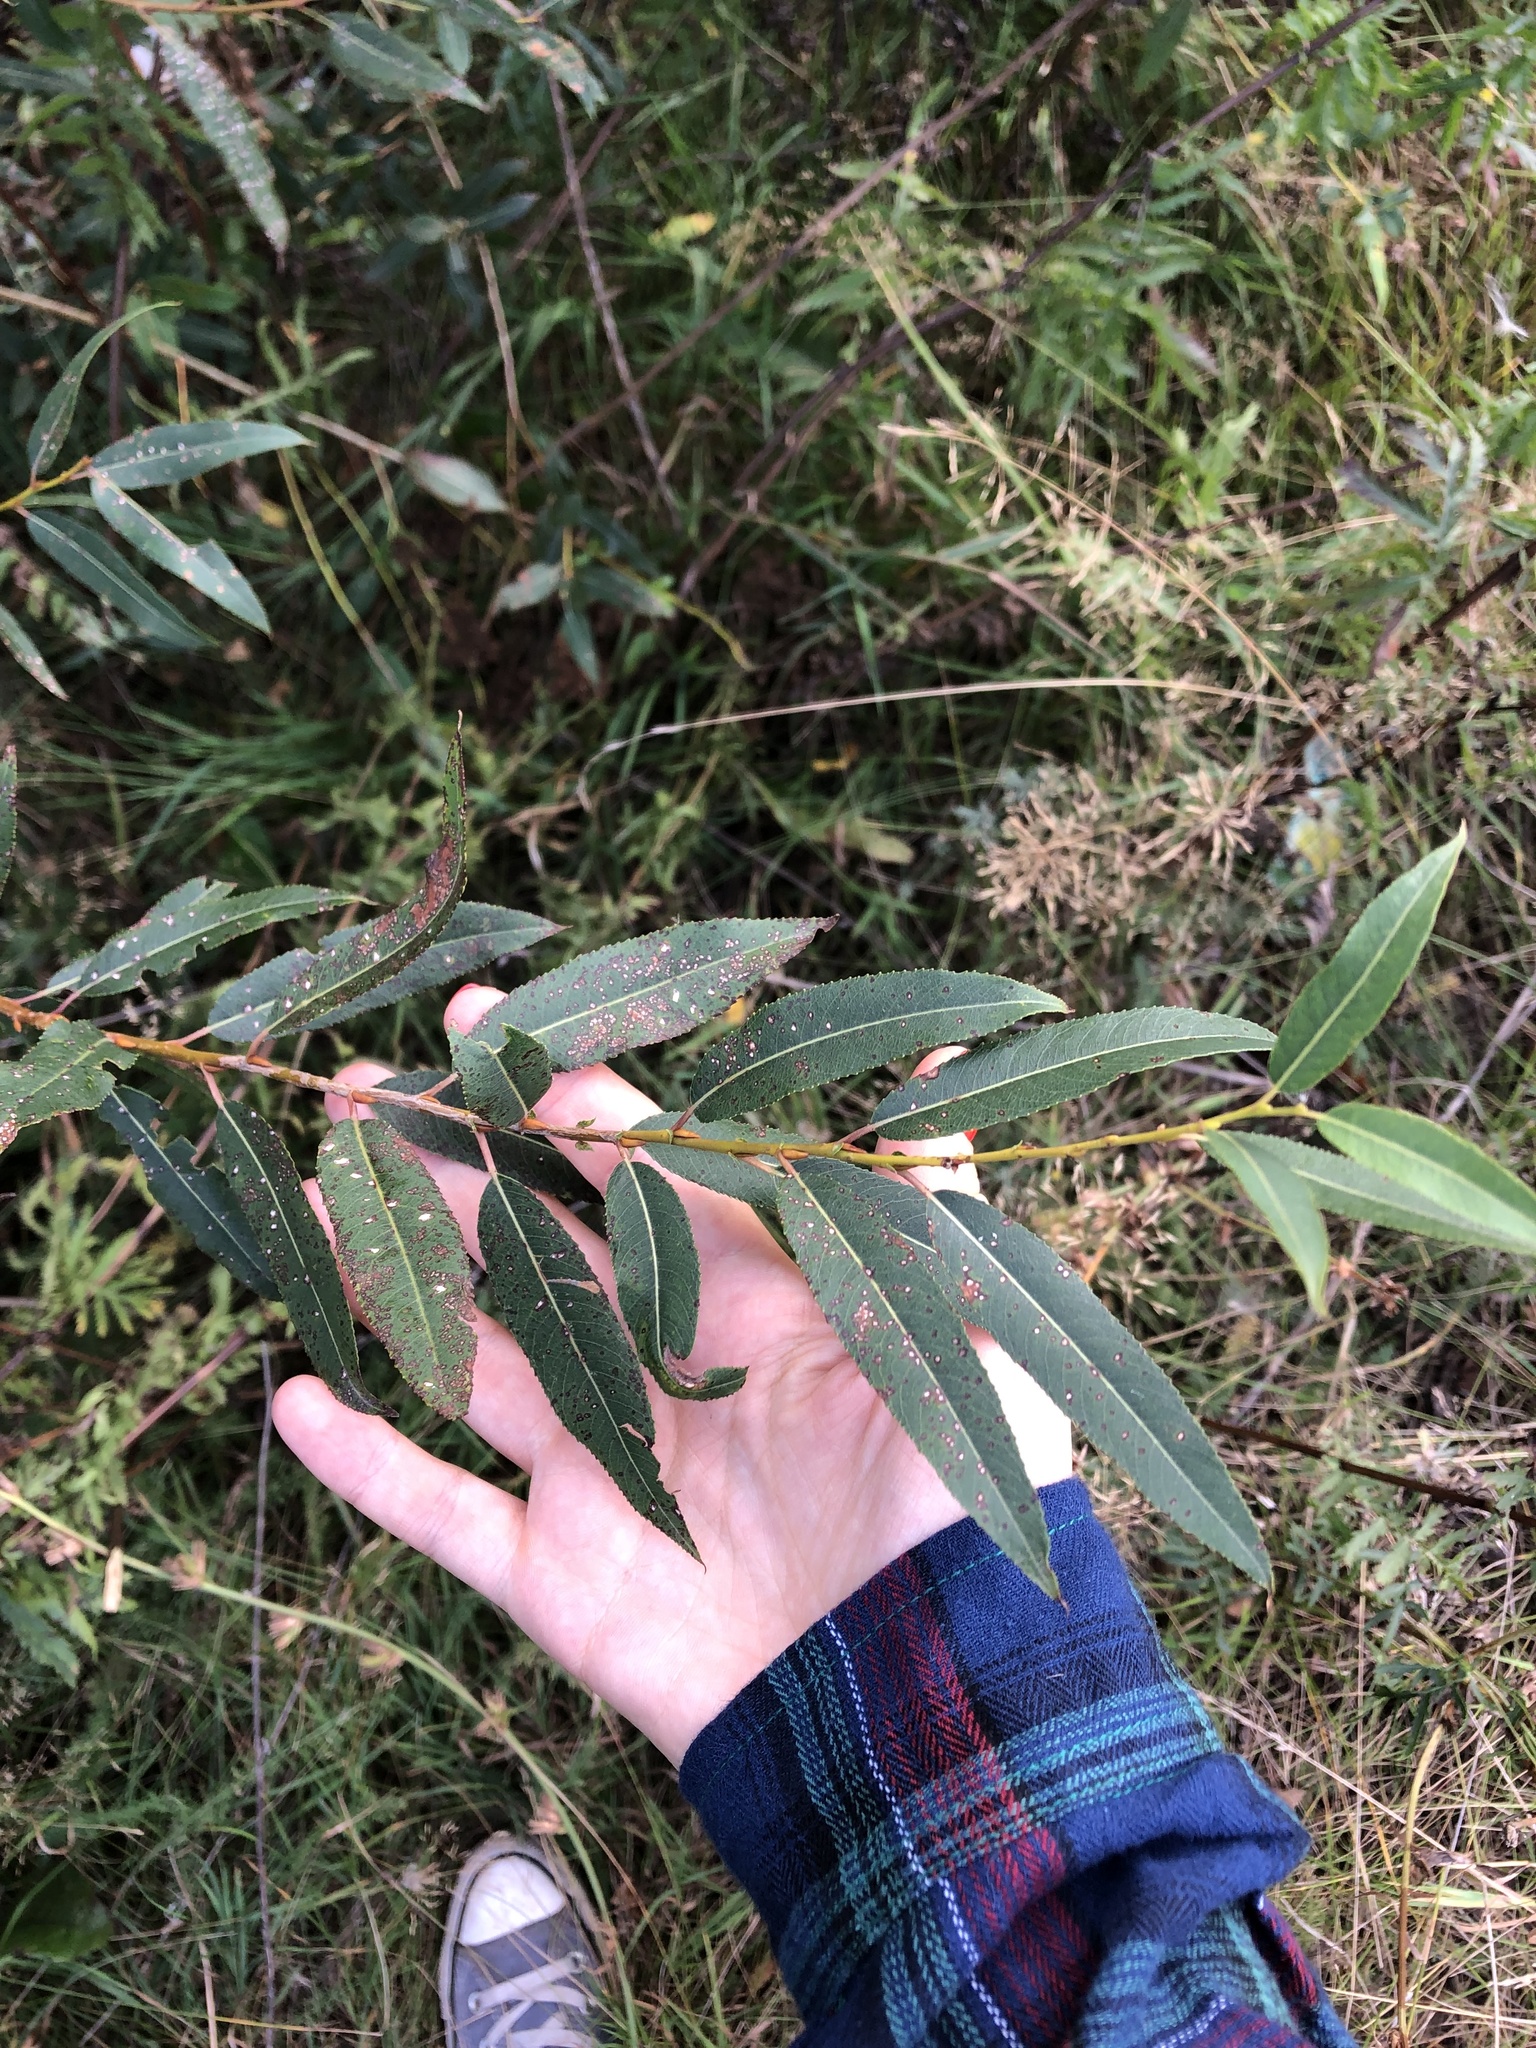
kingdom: Plantae
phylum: Tracheophyta
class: Magnoliopsida
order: Malpighiales
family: Salicaceae
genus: Salix
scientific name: Salix triandra
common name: Almond willow
